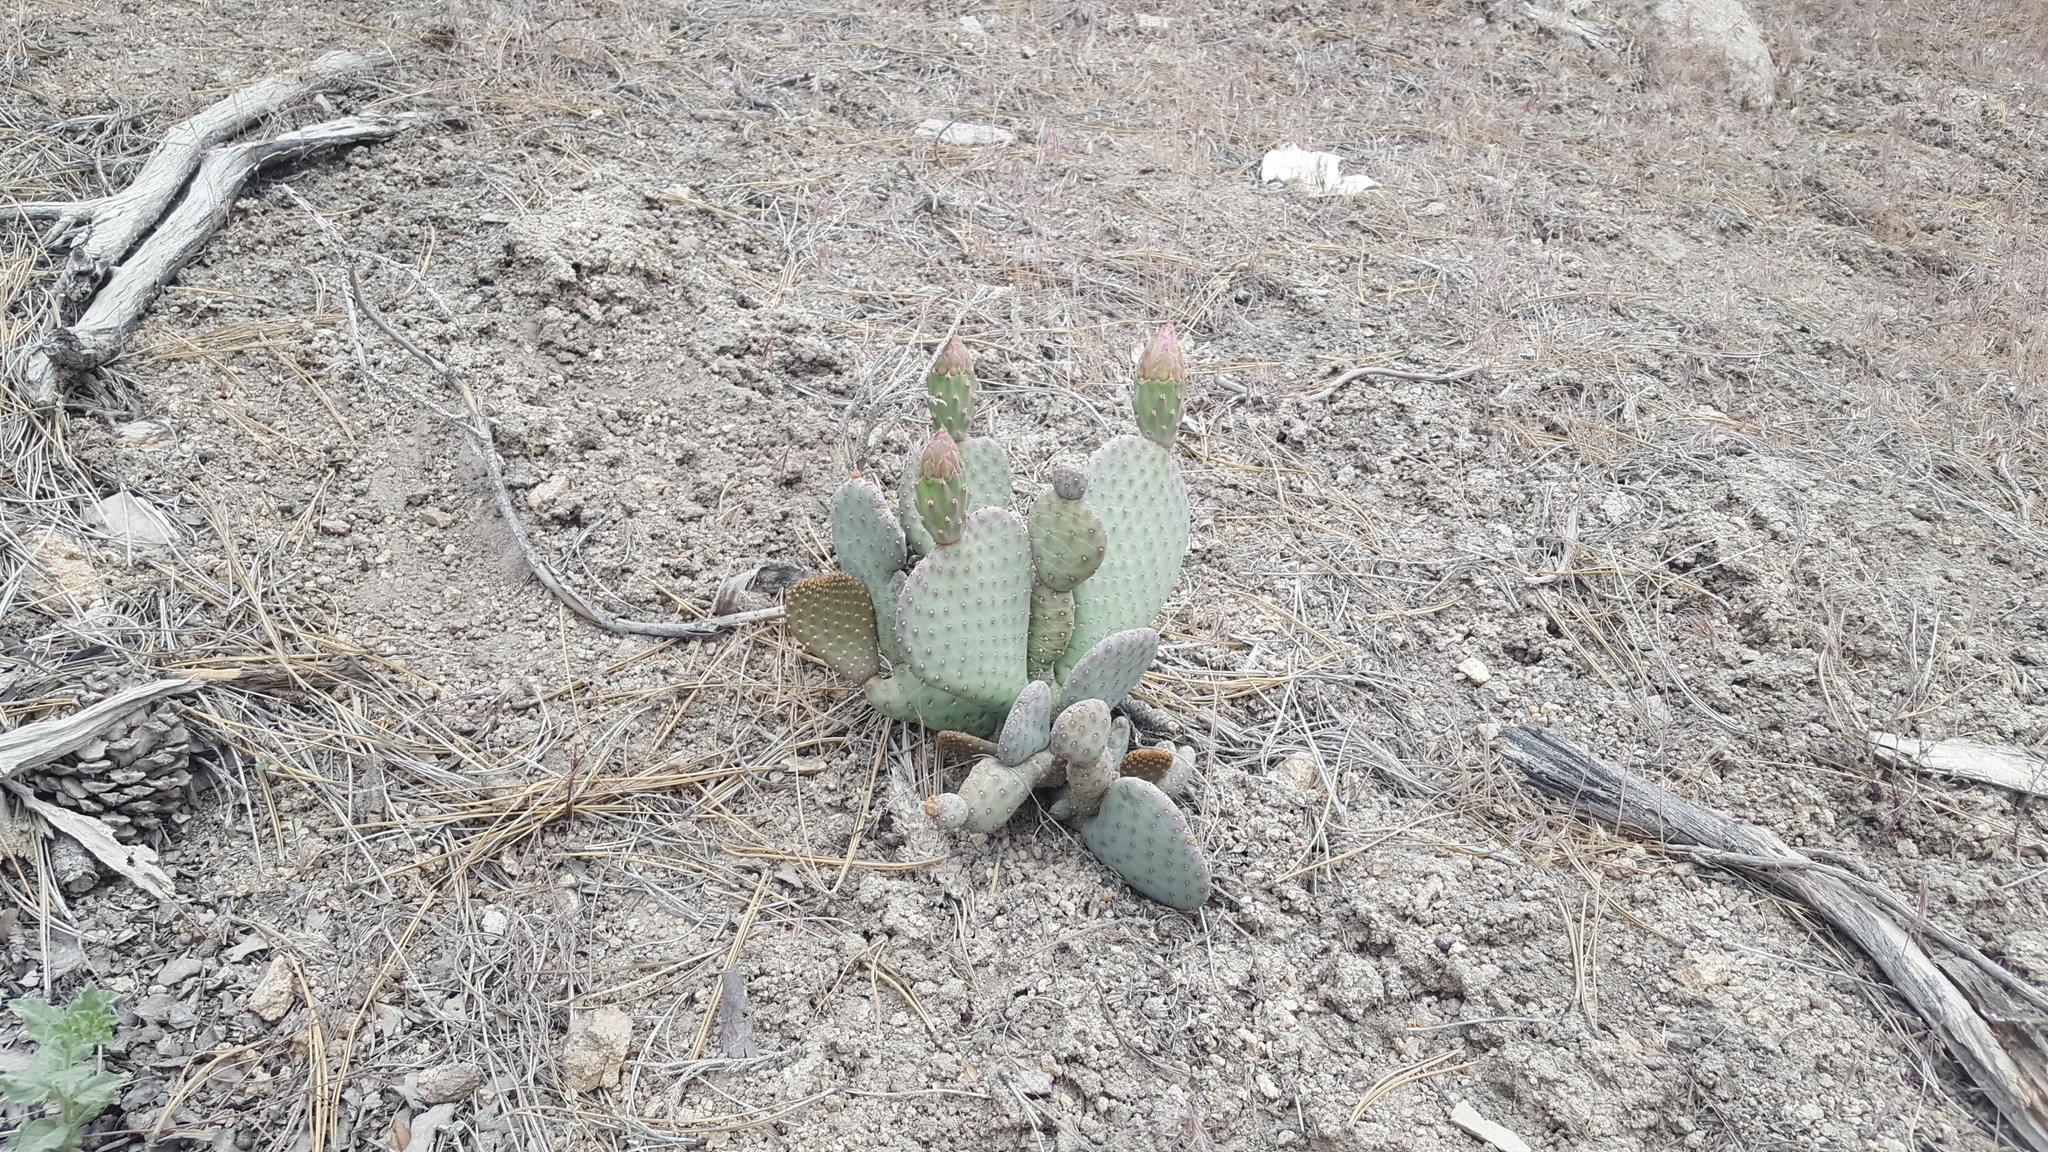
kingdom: Plantae
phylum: Tracheophyta
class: Magnoliopsida
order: Caryophyllales
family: Cactaceae
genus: Opuntia
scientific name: Opuntia basilaris
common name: Beavertail prickly-pear
